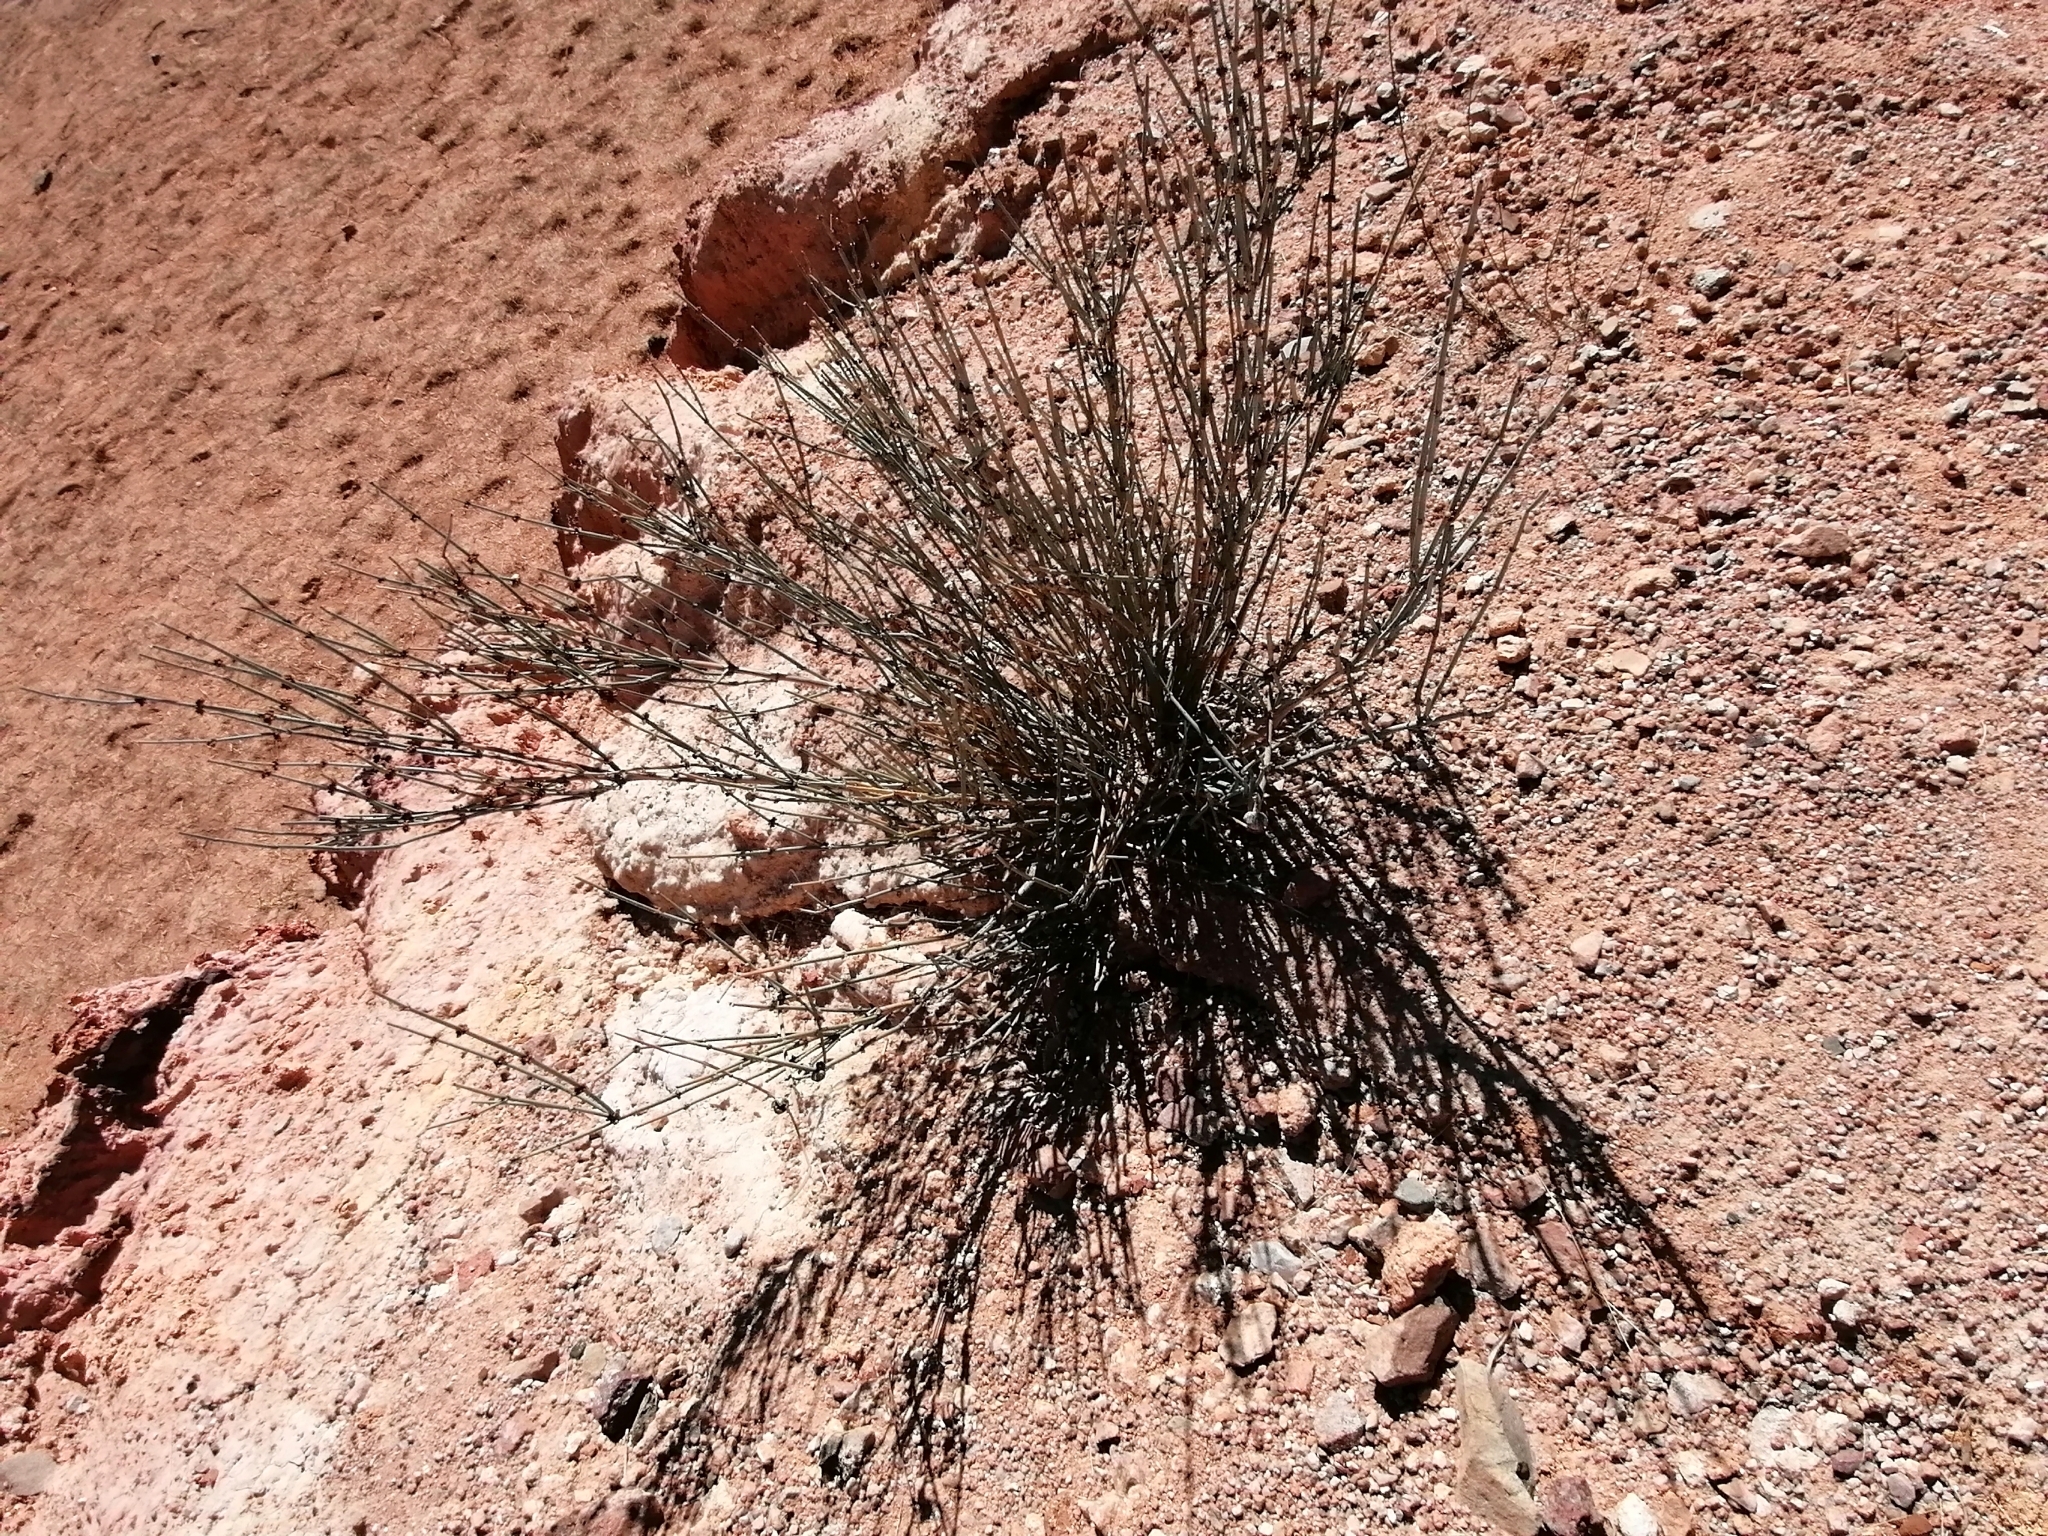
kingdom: Plantae
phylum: Tracheophyta
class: Gnetopsida
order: Ephedrales
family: Ephedraceae
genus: Ephedra
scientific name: Ephedra intermedia
